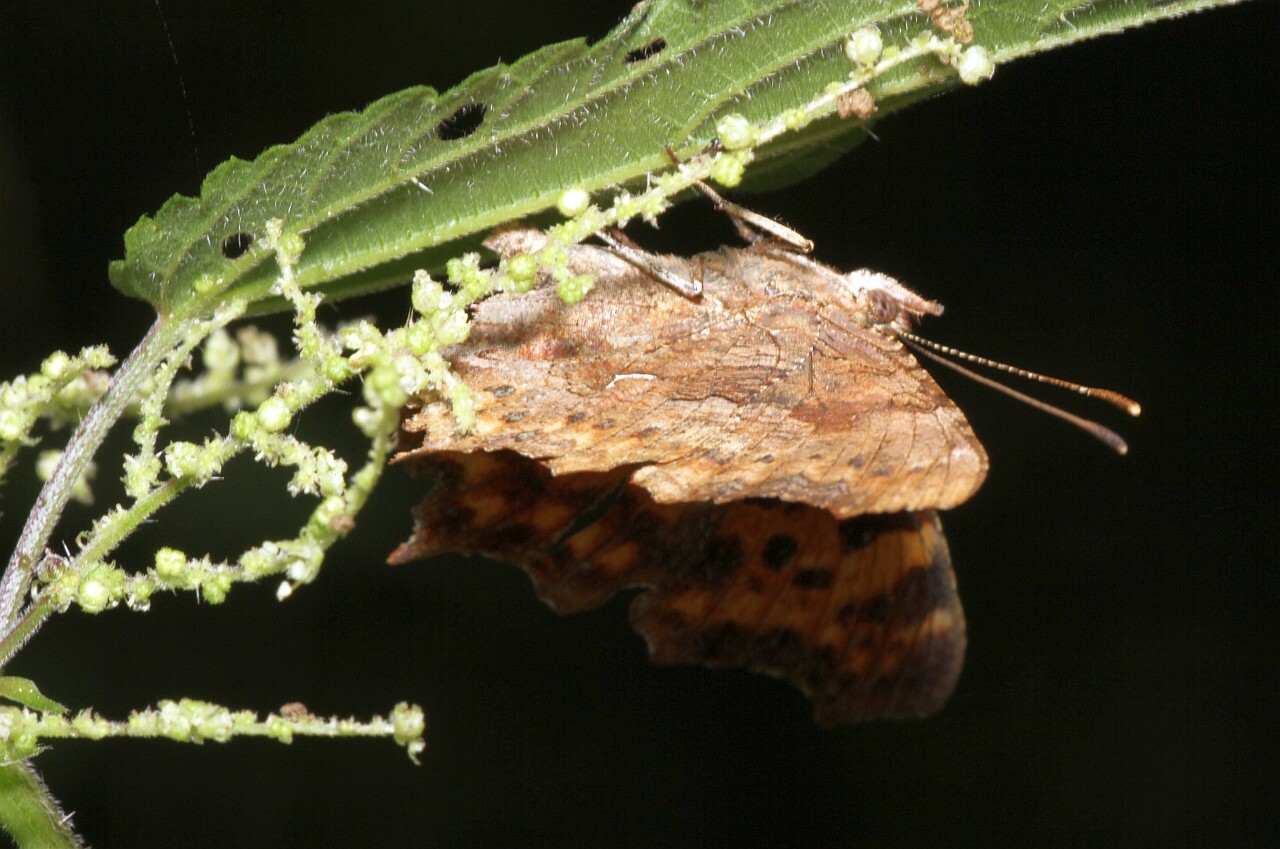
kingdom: Animalia
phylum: Arthropoda
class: Insecta
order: Lepidoptera
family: Nymphalidae
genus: Polygonia
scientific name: Polygonia c-album
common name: Comma
